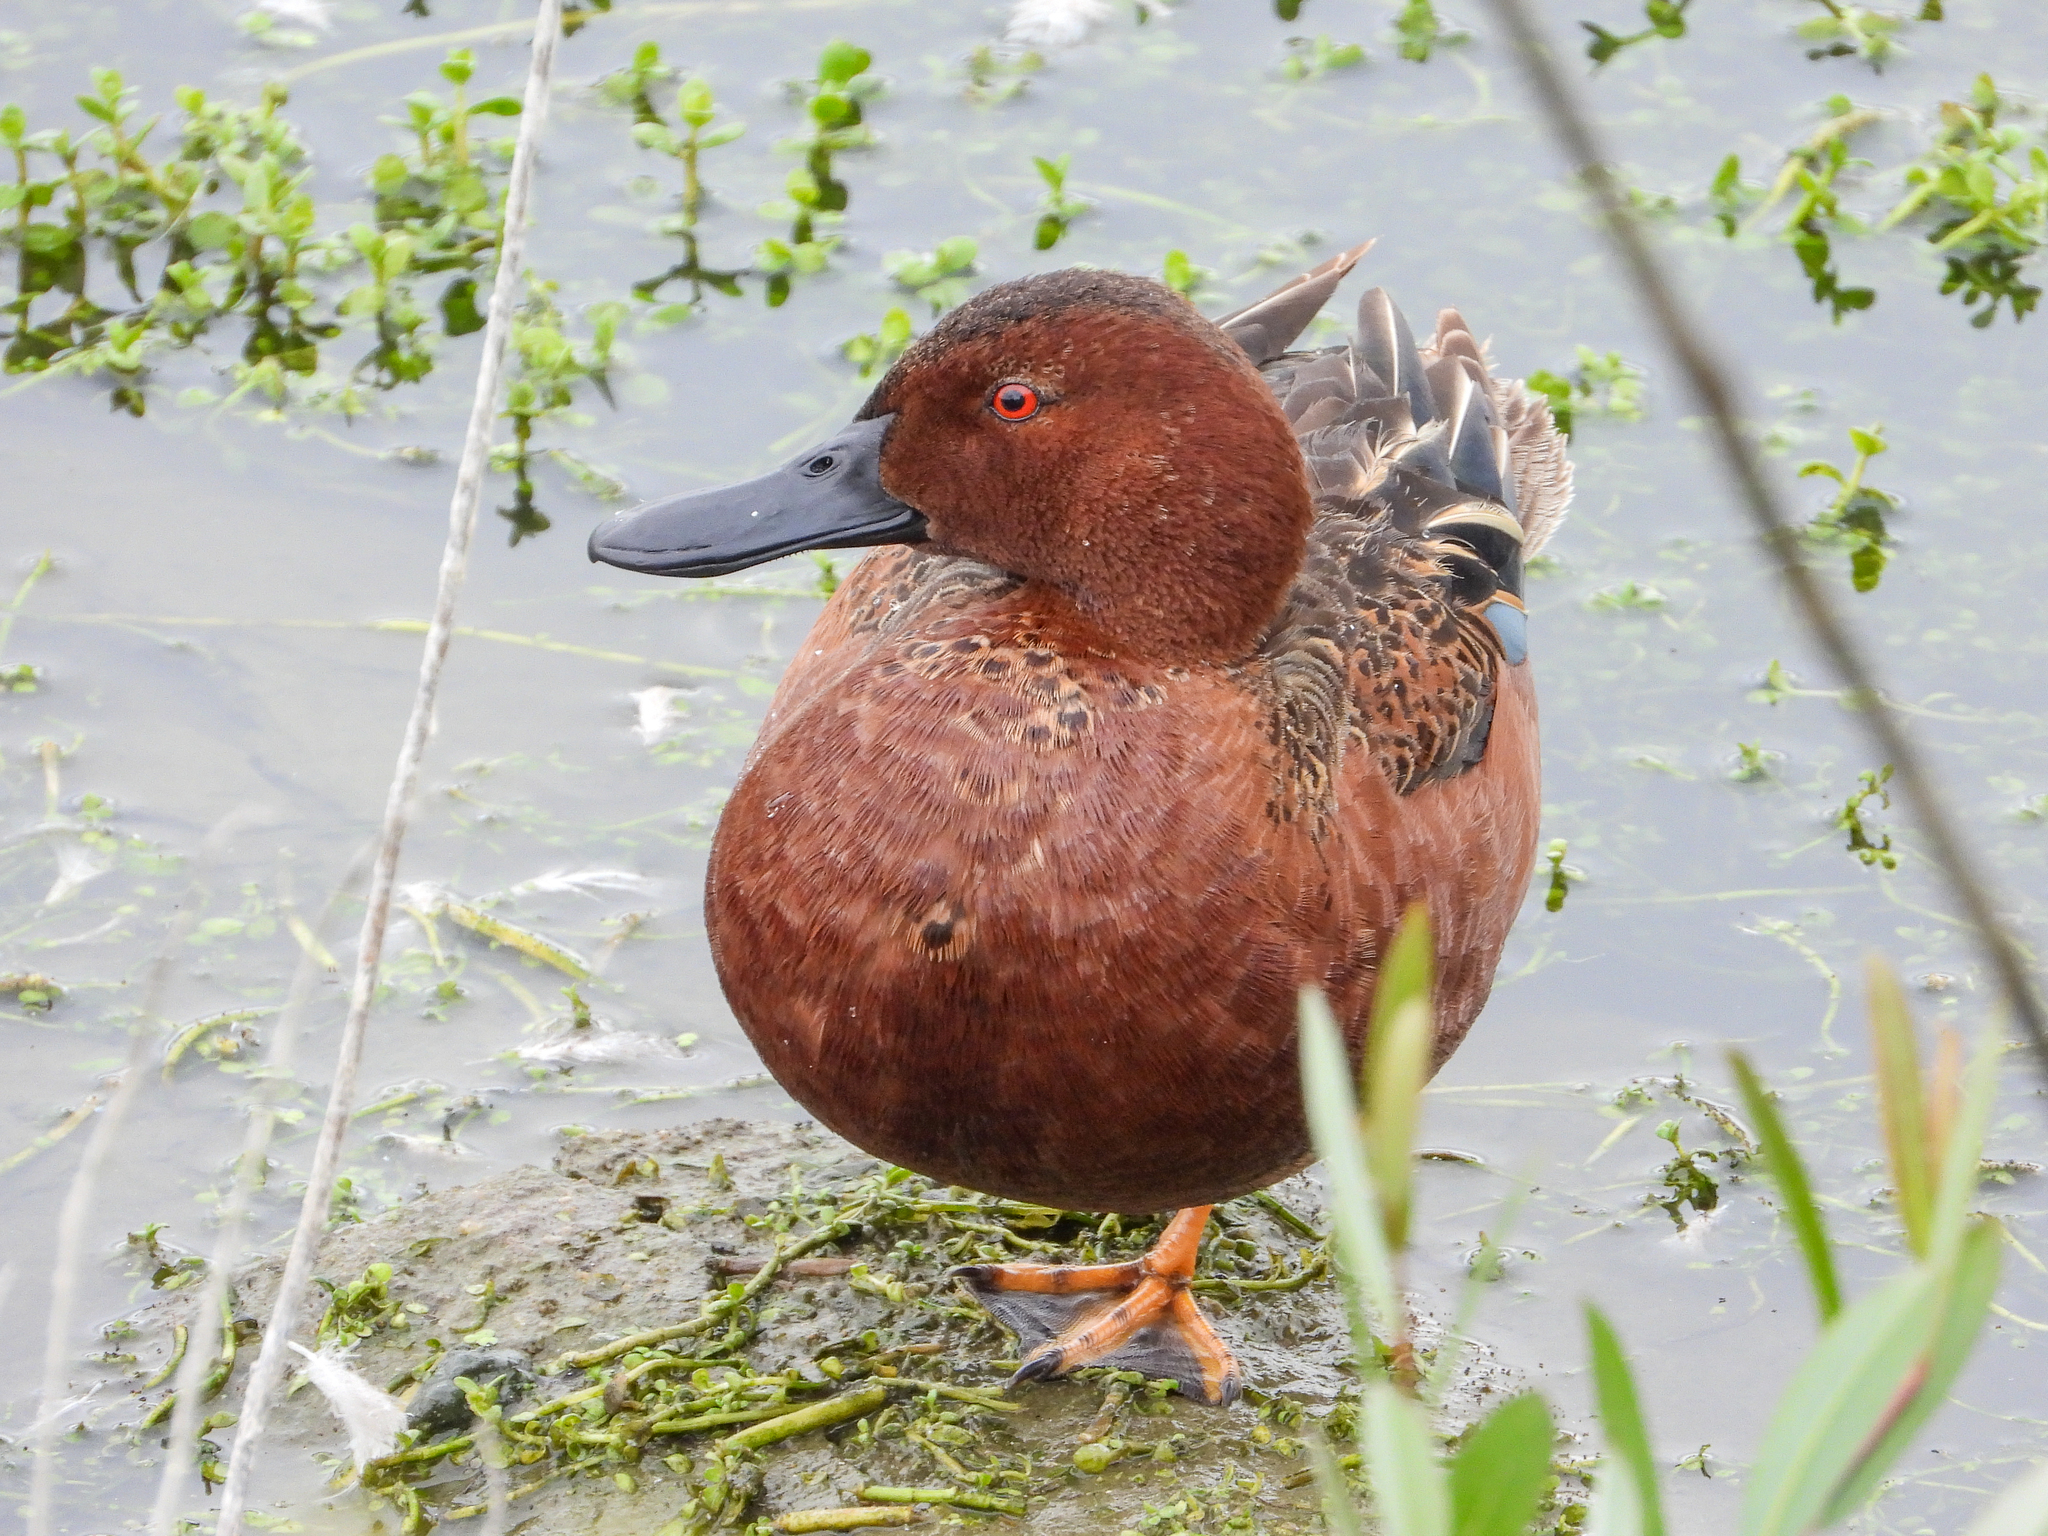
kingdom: Animalia
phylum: Chordata
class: Aves
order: Anseriformes
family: Anatidae
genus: Spatula
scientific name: Spatula cyanoptera
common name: Cinnamon teal
